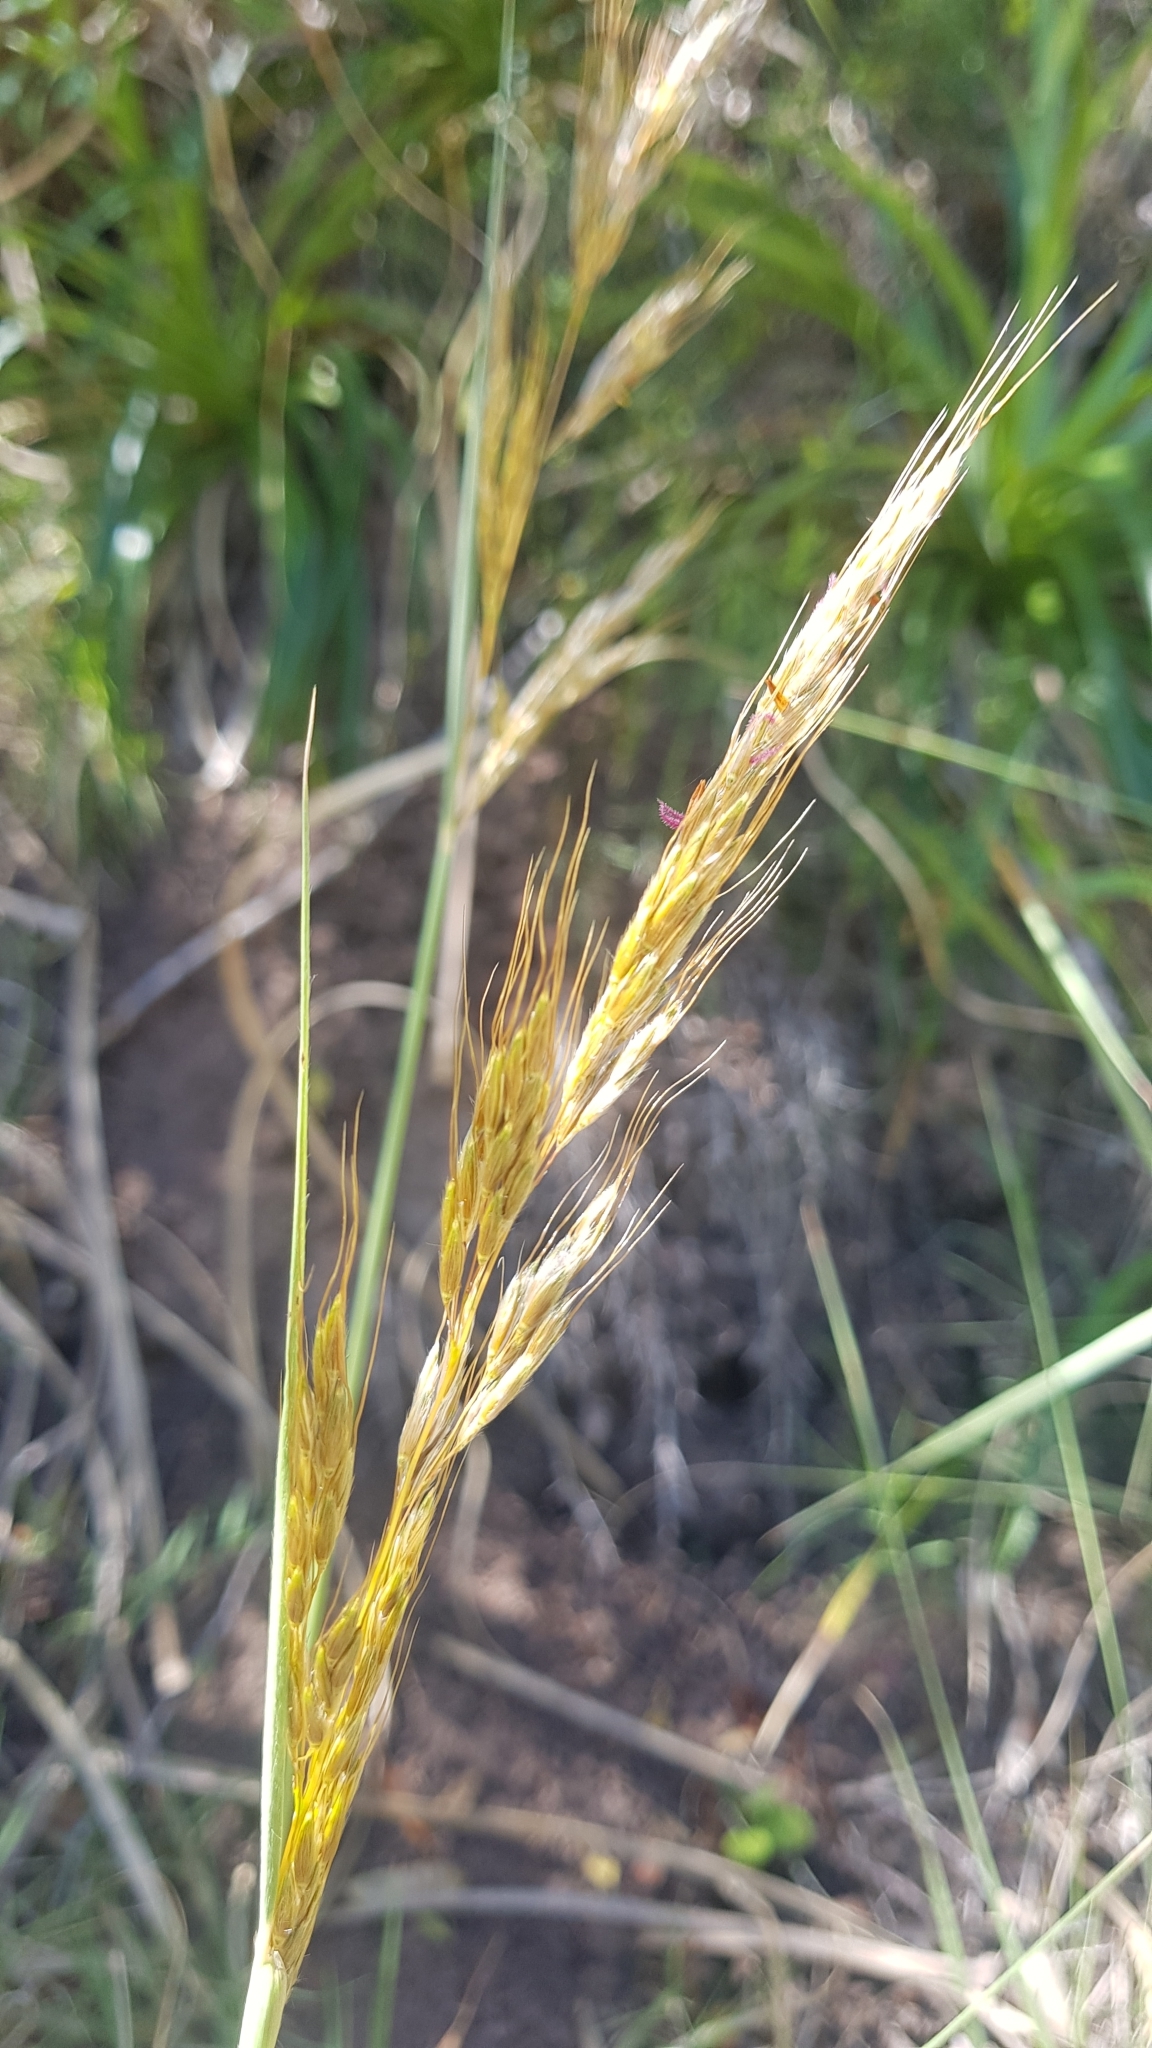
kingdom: Plantae
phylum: Tracheophyta
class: Liliopsida
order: Poales
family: Poaceae
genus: Sorghastrum
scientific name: Sorghastrum pellitum
